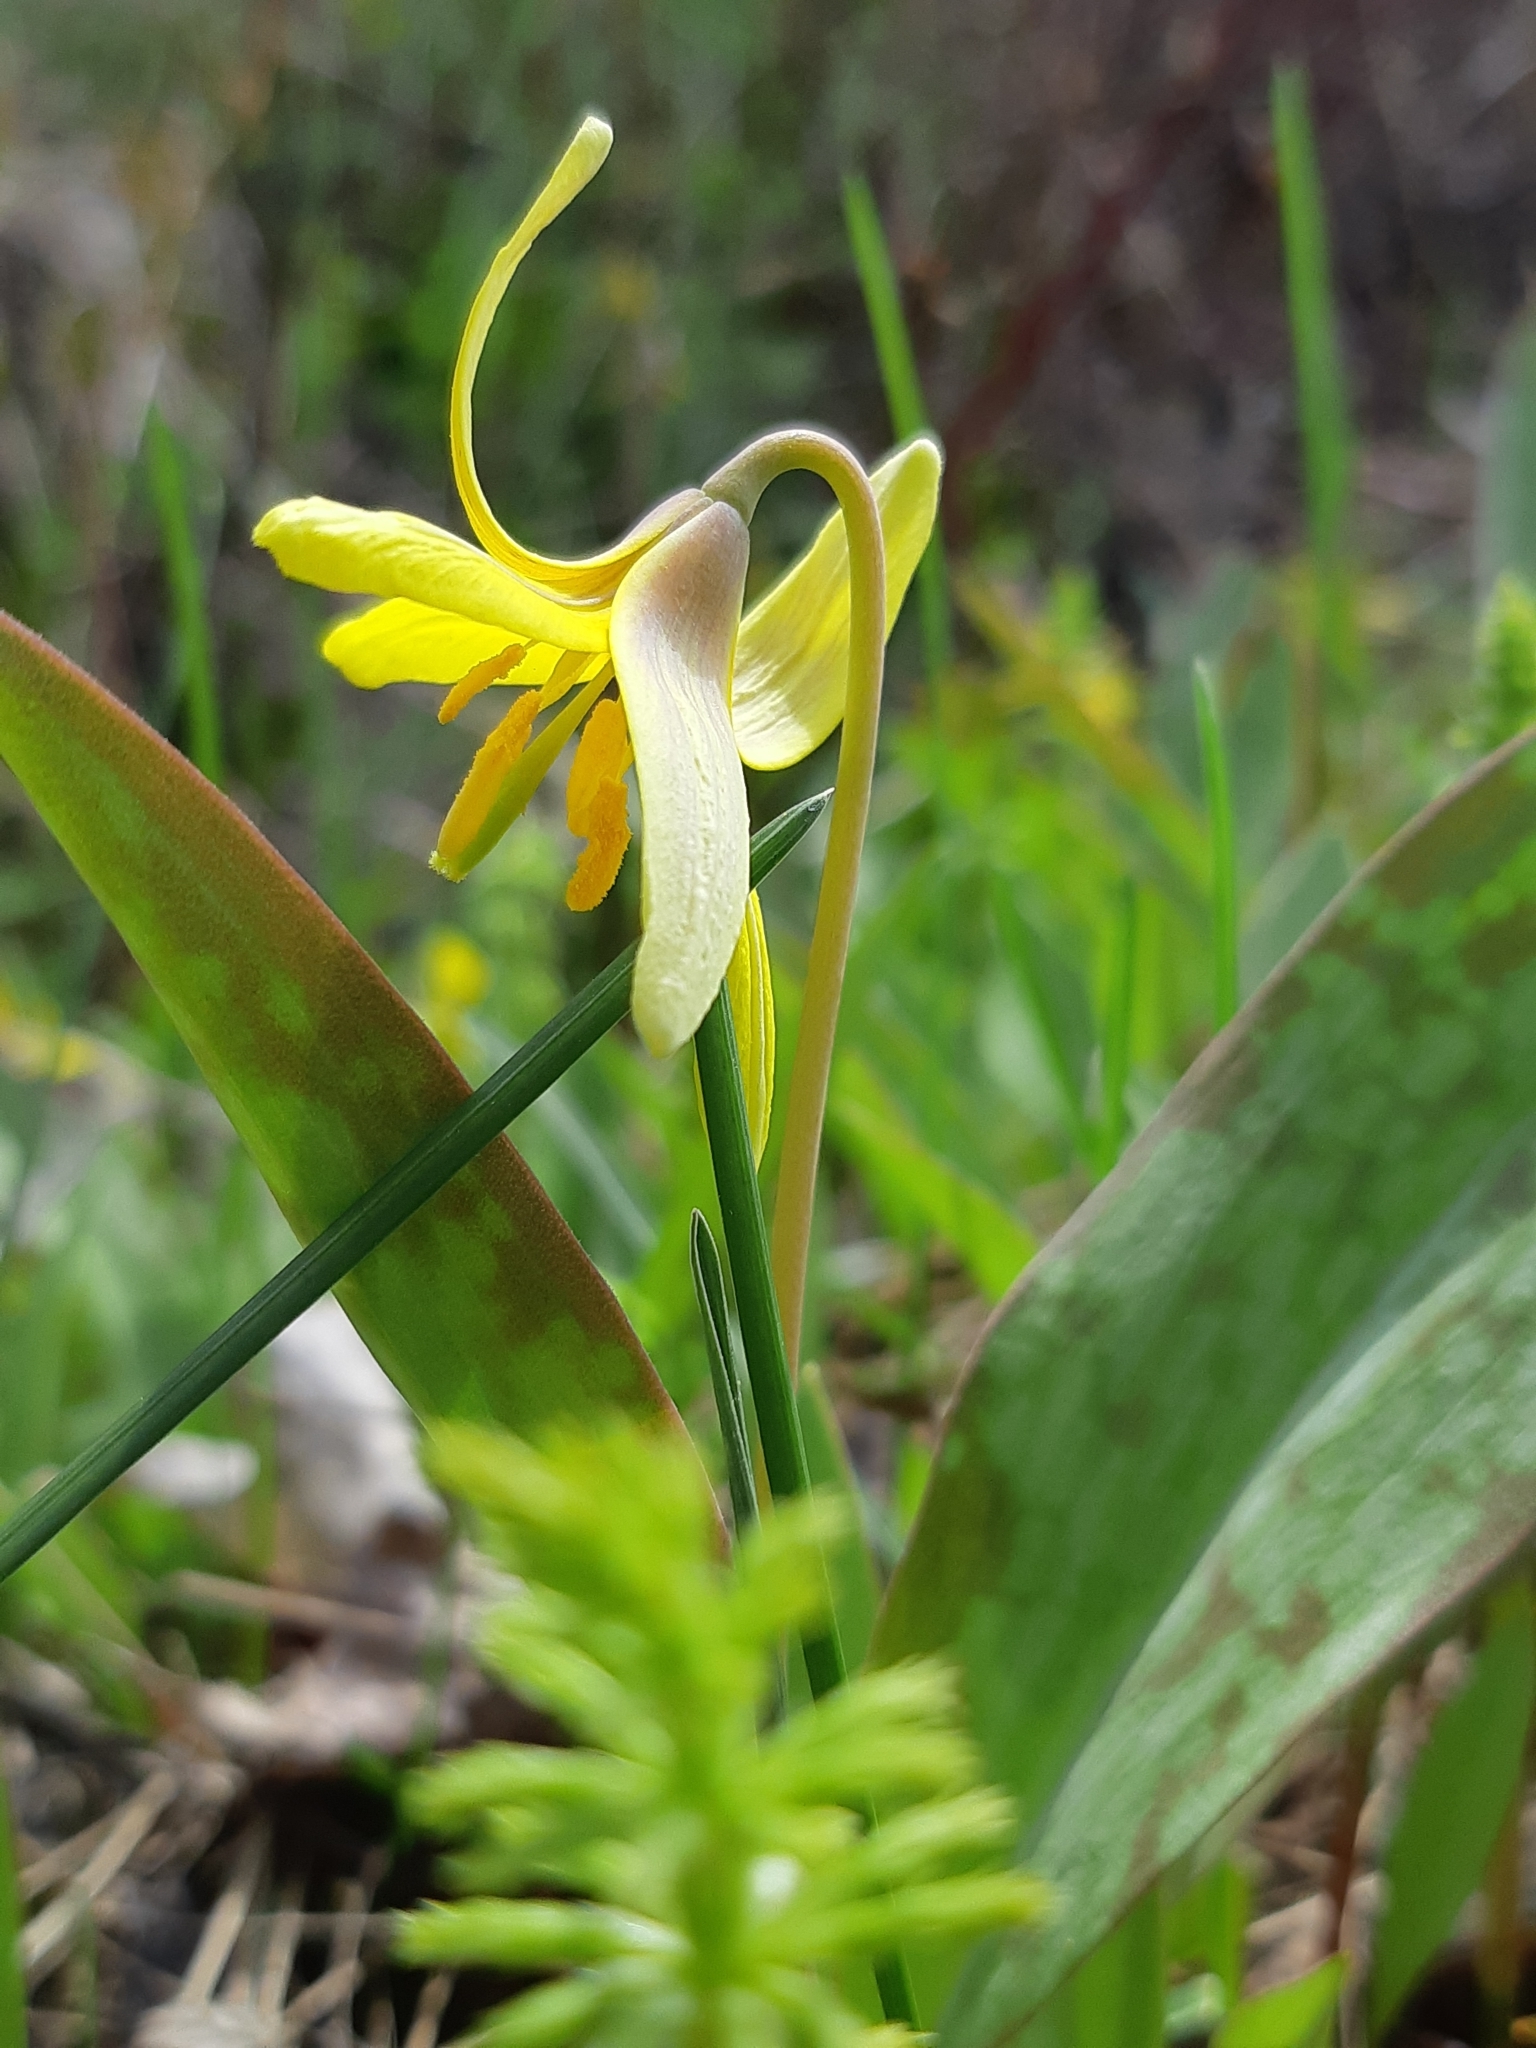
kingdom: Plantae
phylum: Tracheophyta
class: Liliopsida
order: Liliales
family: Liliaceae
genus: Erythronium
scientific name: Erythronium americanum
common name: Yellow adder's-tongue
